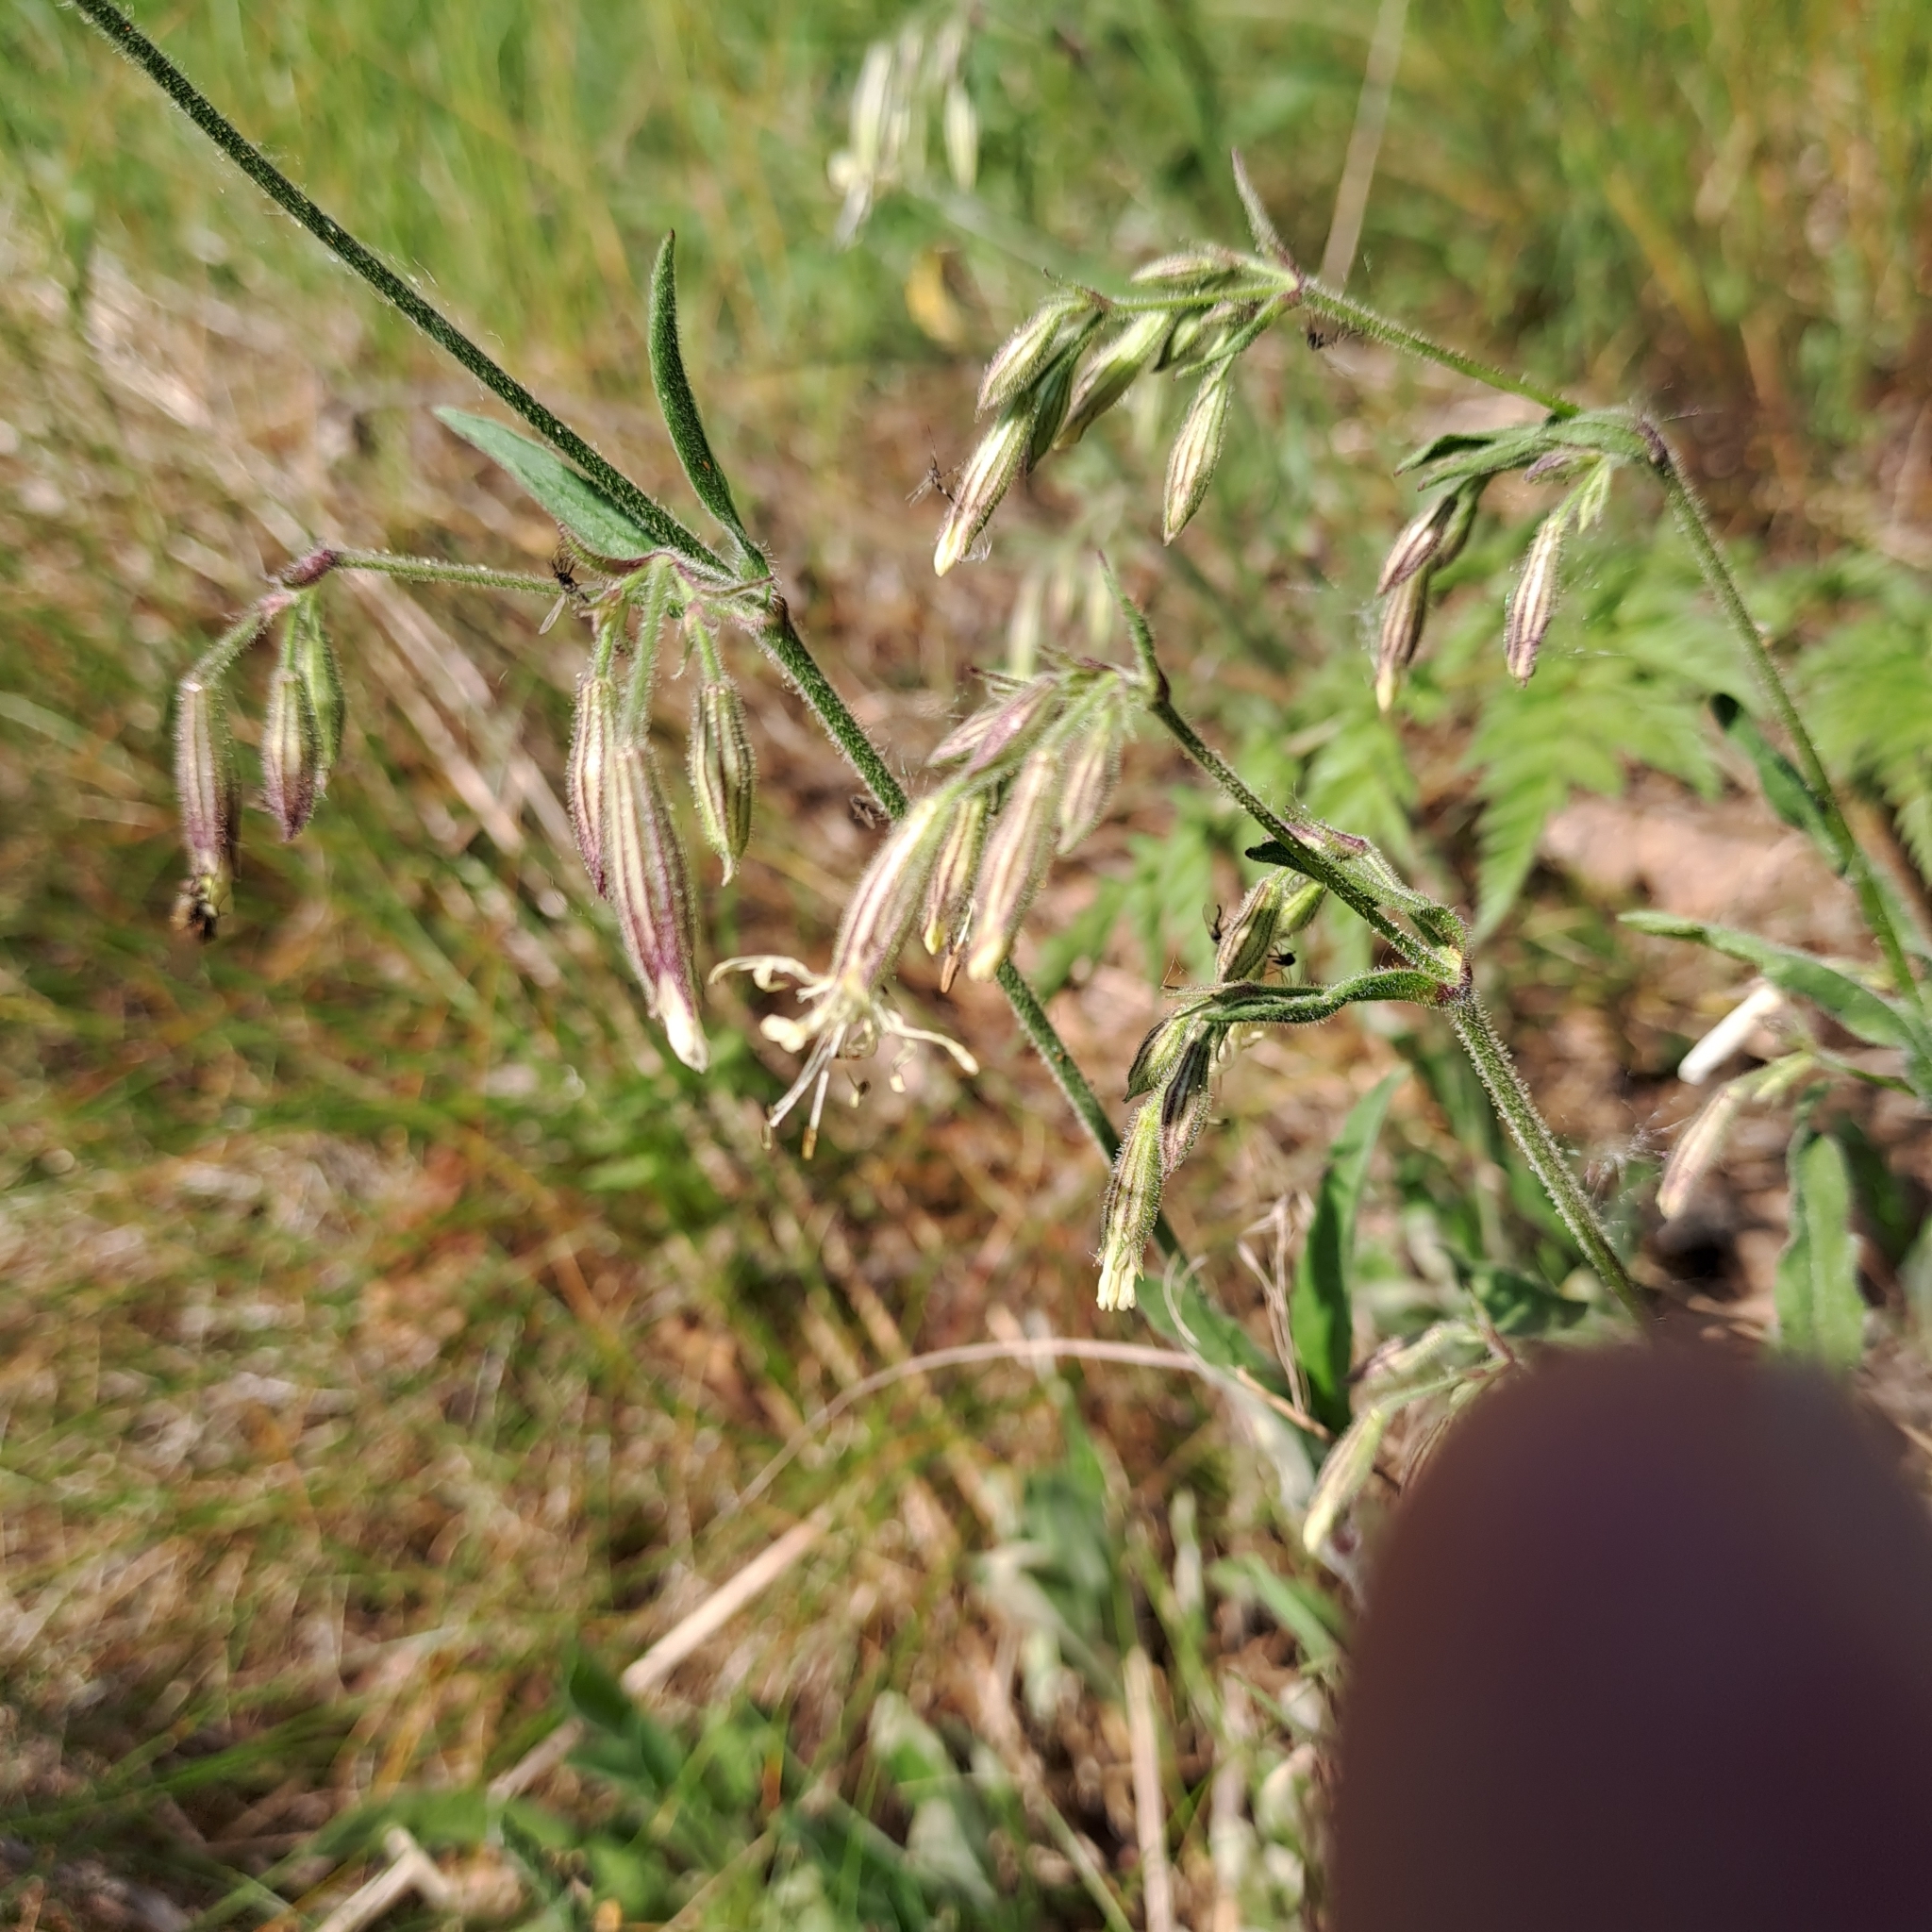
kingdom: Plantae
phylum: Tracheophyta
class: Magnoliopsida
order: Caryophyllales
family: Caryophyllaceae
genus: Silene
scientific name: Silene nutans
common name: Nottingham catchfly
